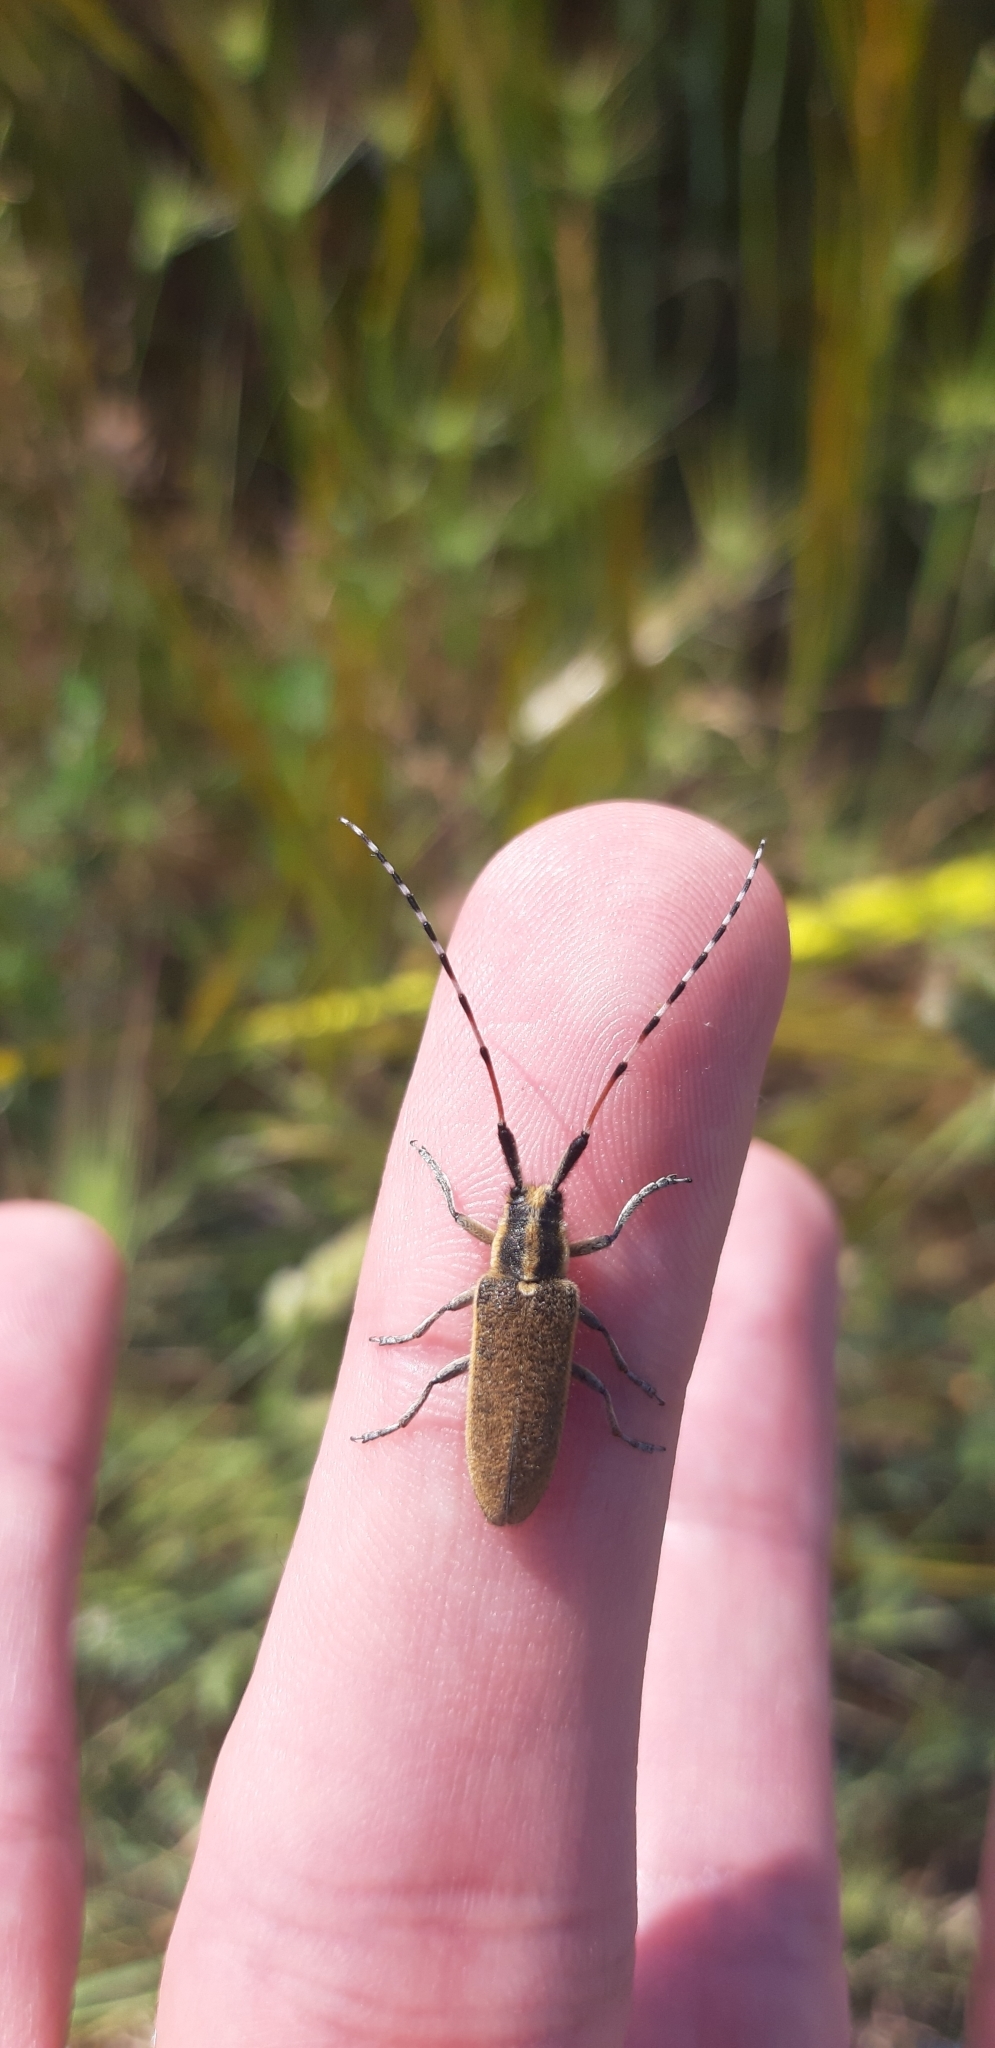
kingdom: Animalia
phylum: Arthropoda
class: Insecta
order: Coleoptera
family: Cerambycidae
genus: Agapanthia
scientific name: Agapanthia sicula
